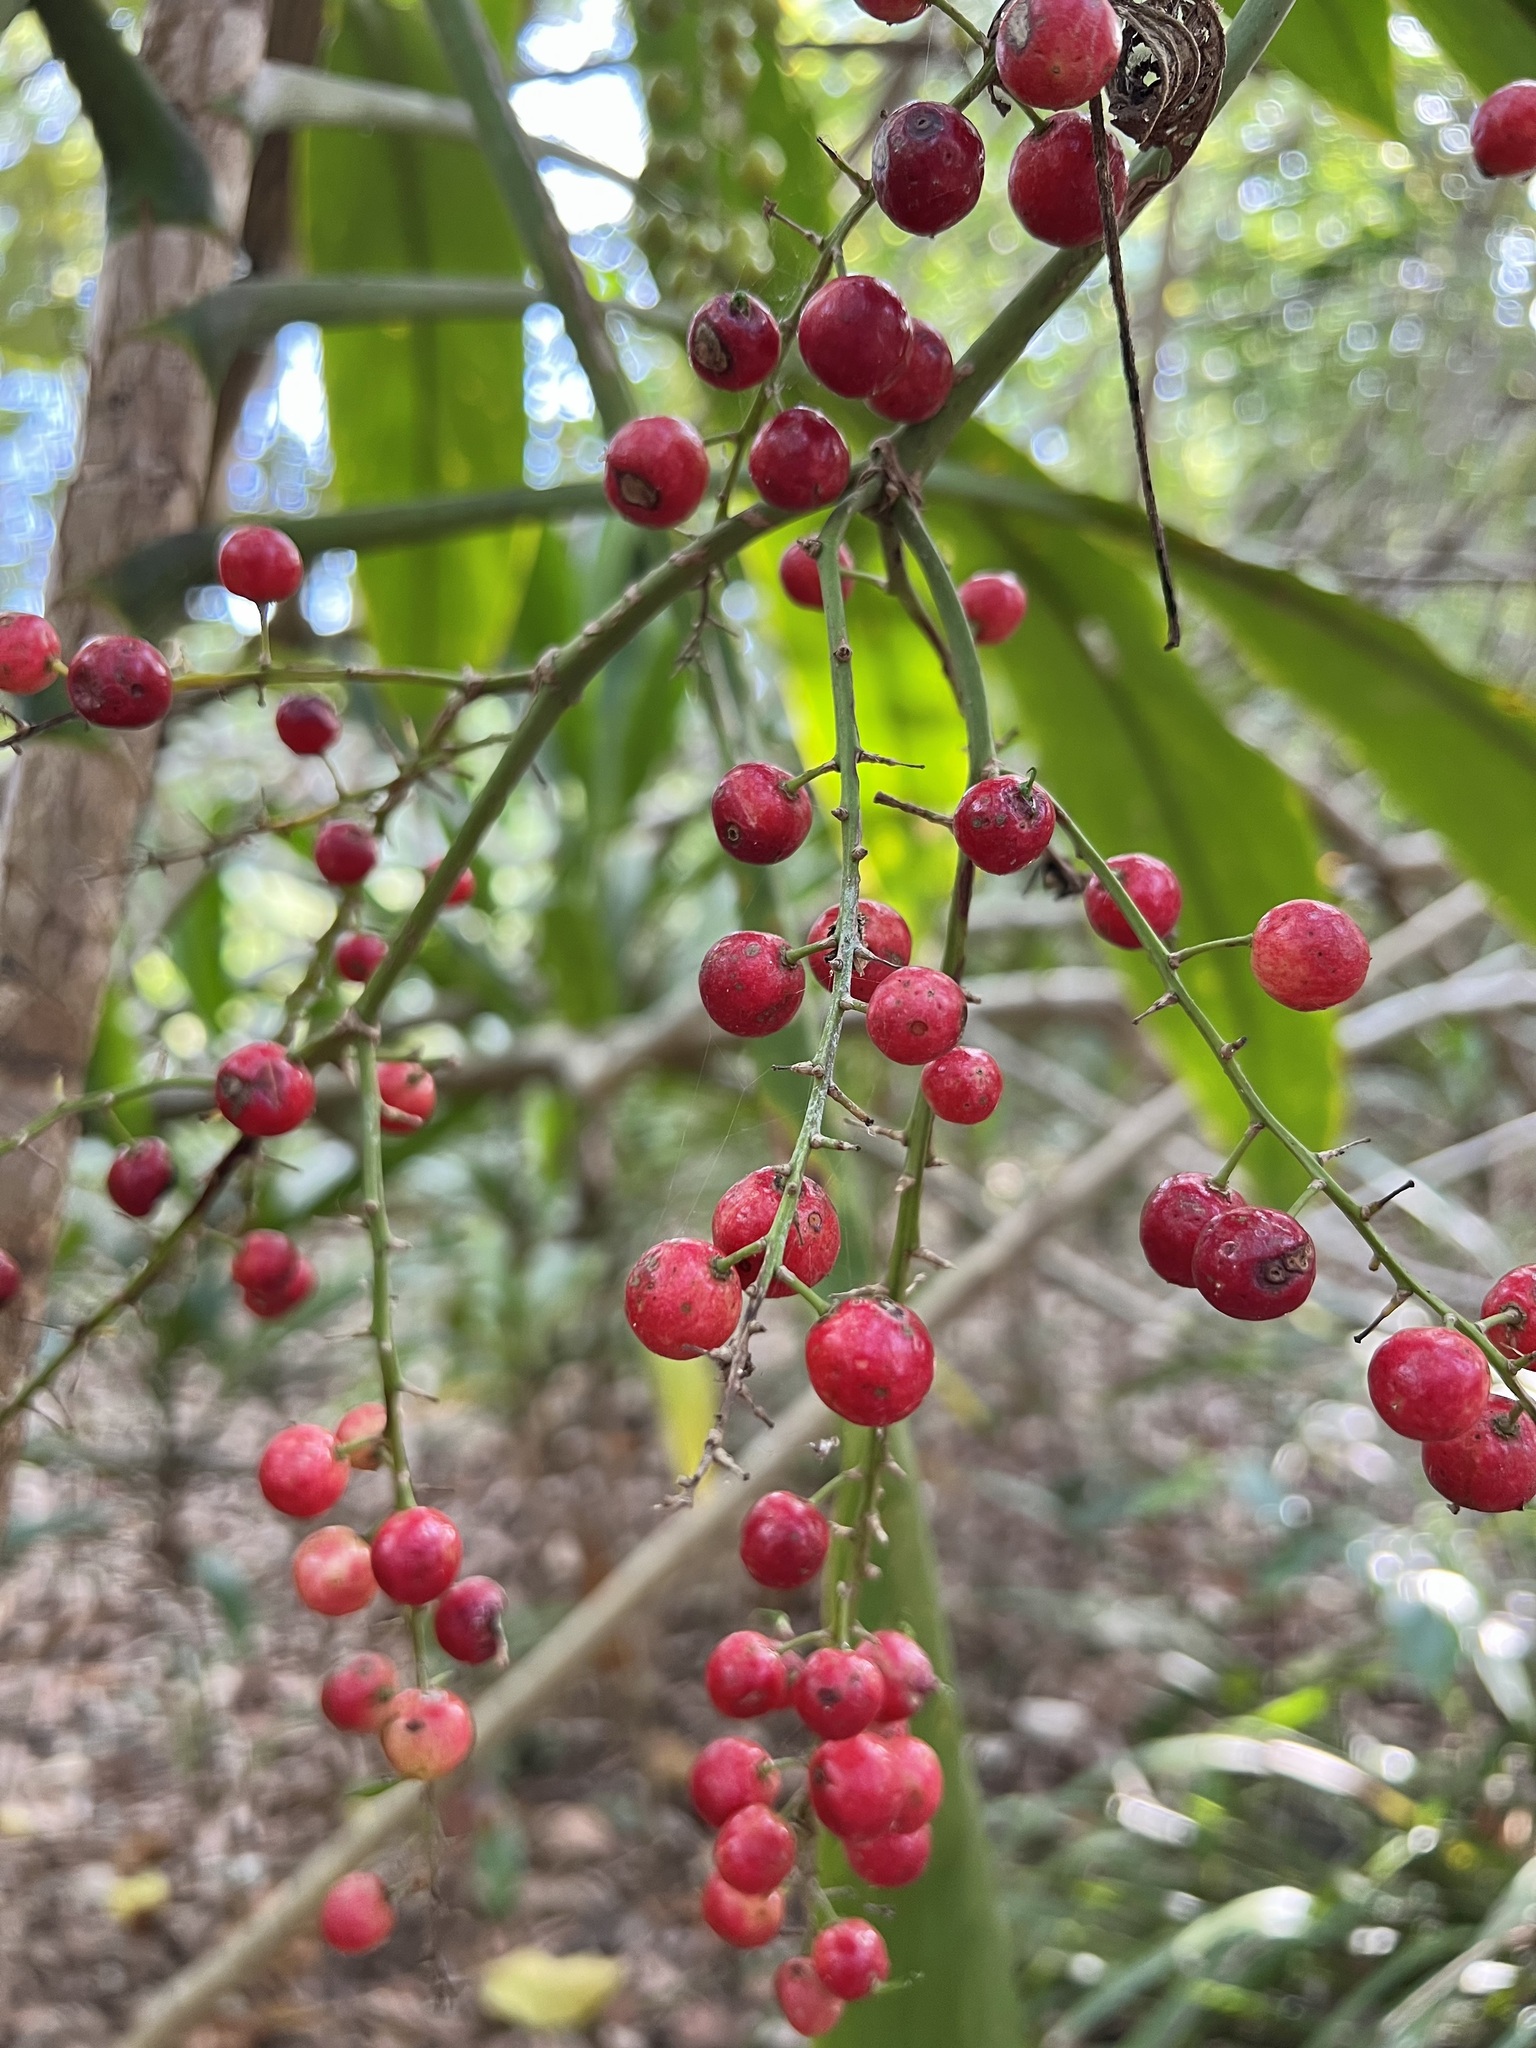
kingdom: Plantae
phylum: Tracheophyta
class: Liliopsida
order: Asparagales
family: Asparagaceae
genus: Cordyline
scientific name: Cordyline manners-suttoniae
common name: Giant palm-lily
